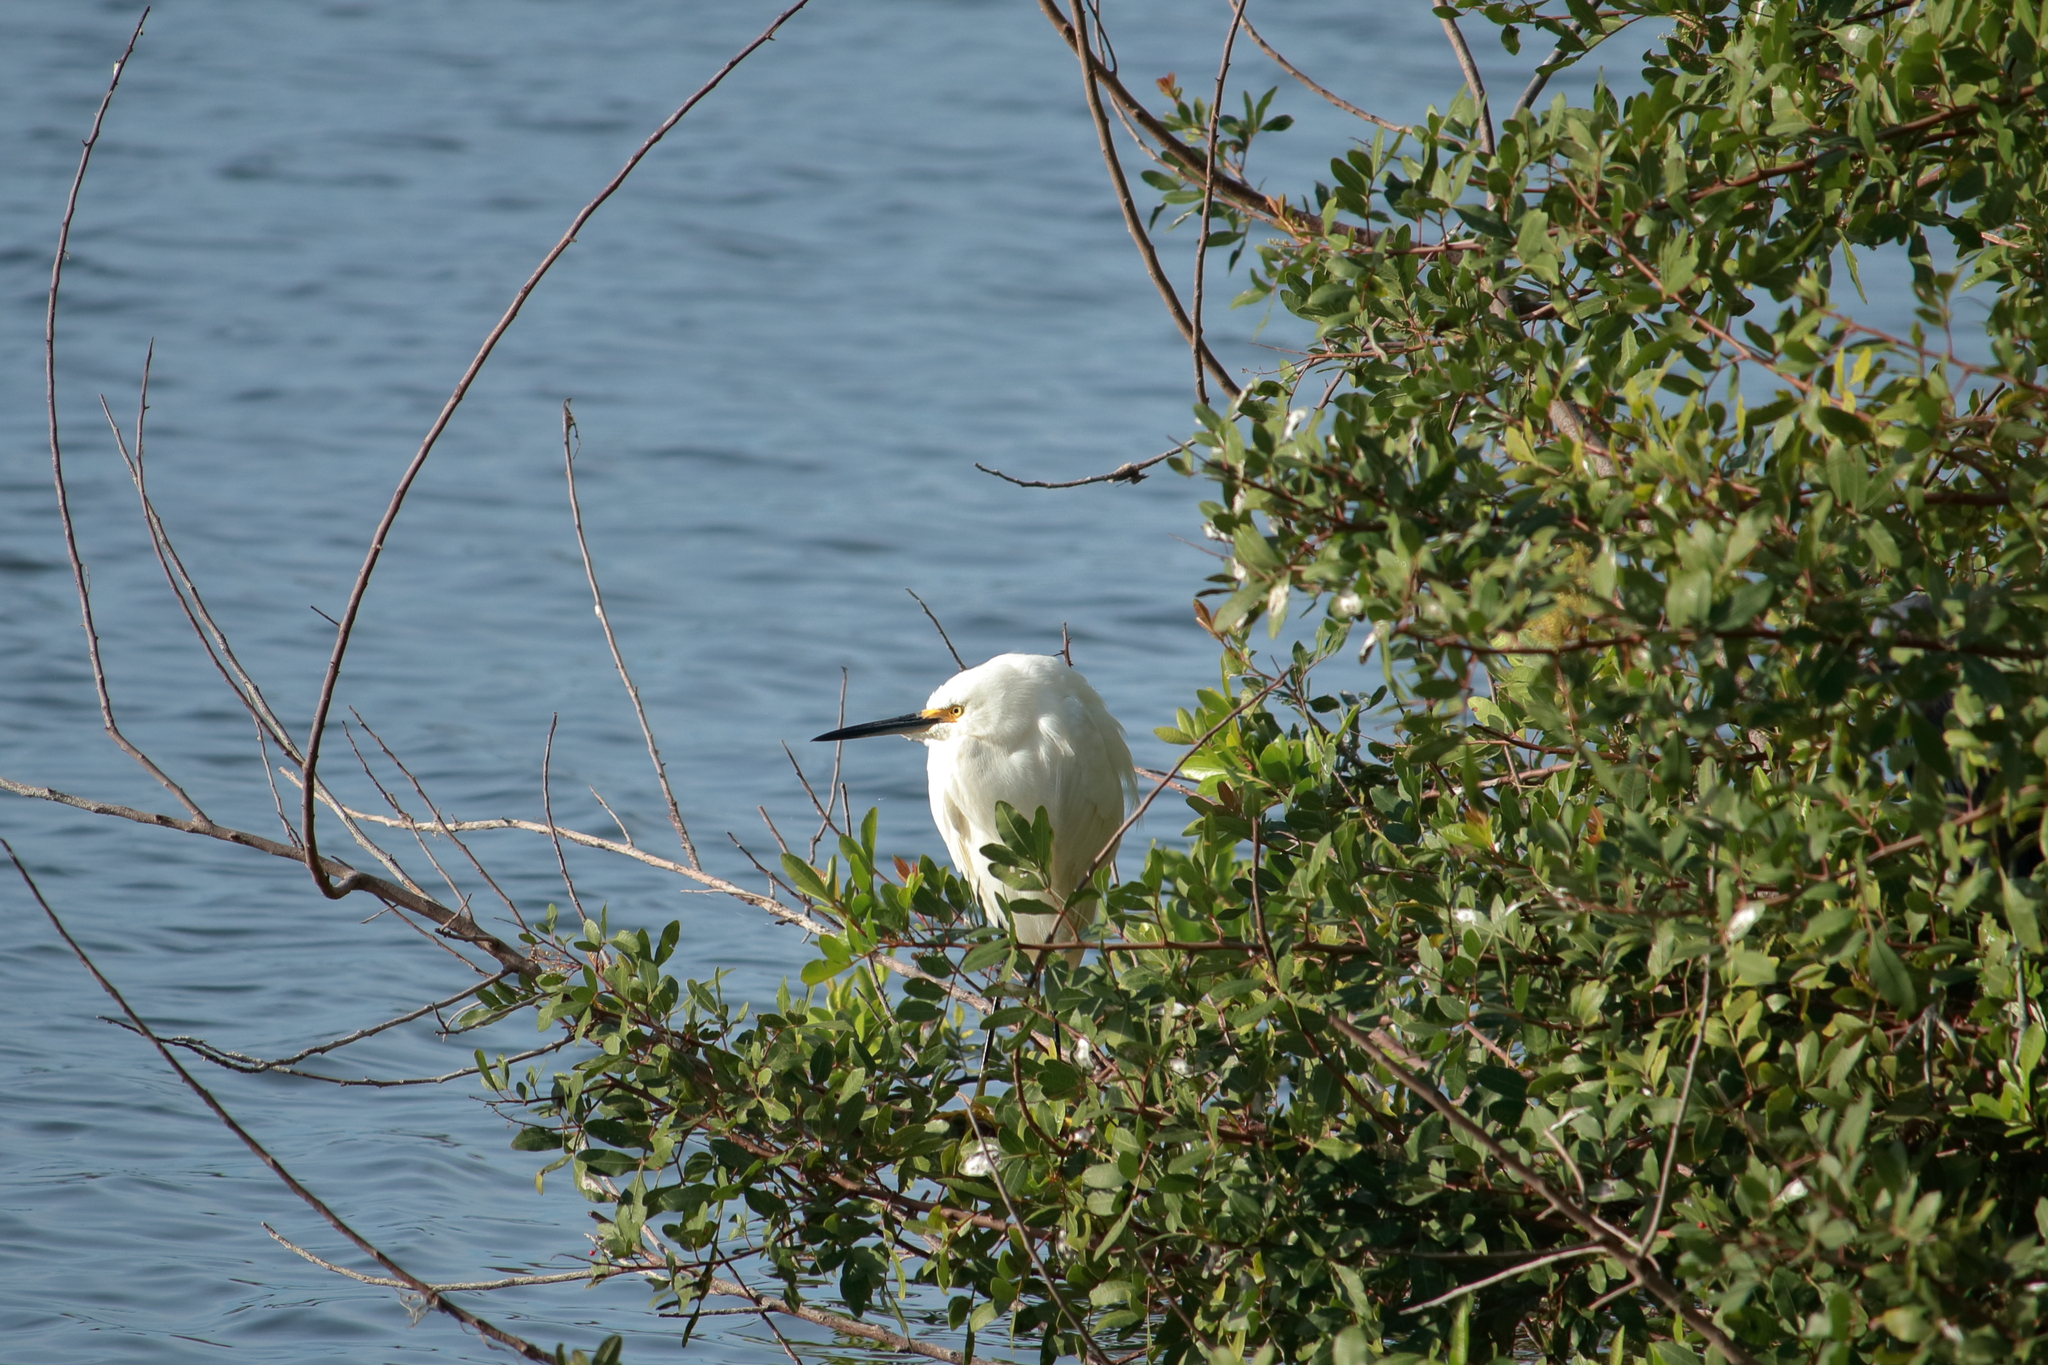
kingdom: Animalia
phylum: Chordata
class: Aves
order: Pelecaniformes
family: Ardeidae
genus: Egretta
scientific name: Egretta thula
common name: Snowy egret
